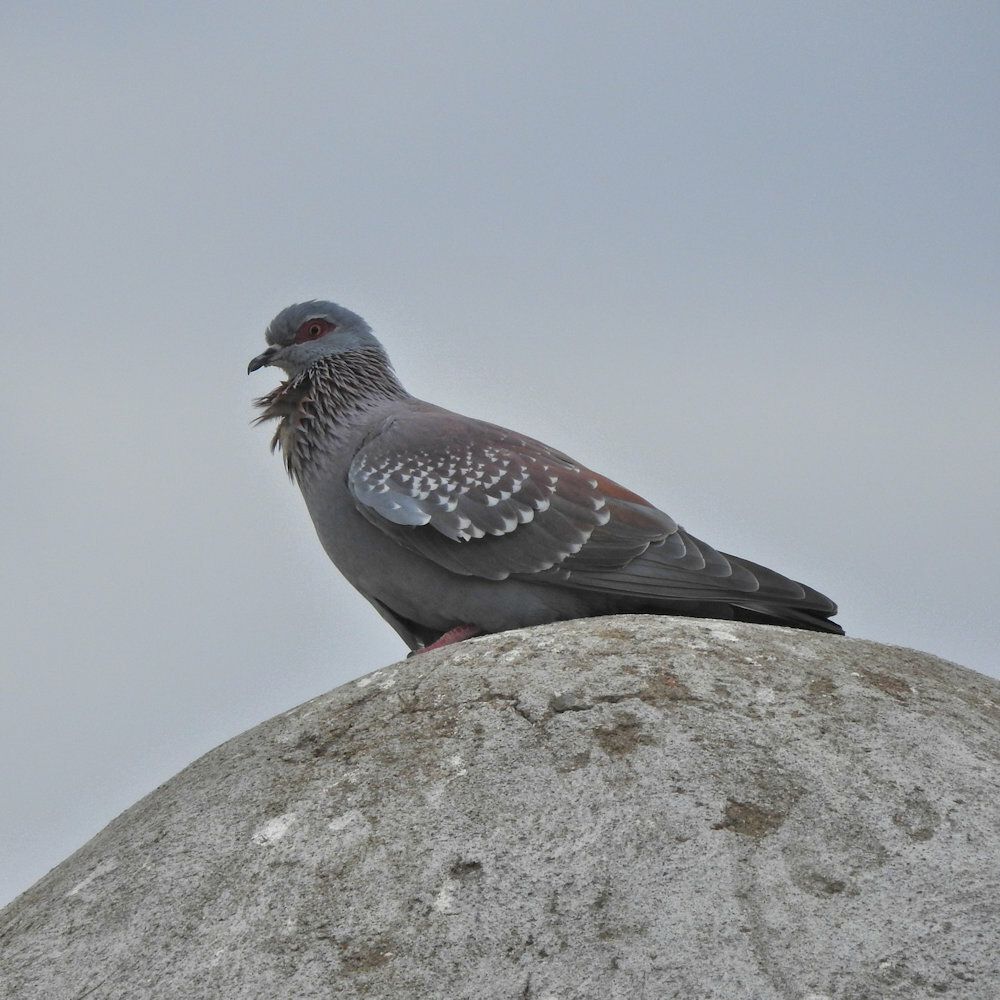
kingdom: Animalia
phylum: Chordata
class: Aves
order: Columbiformes
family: Columbidae
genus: Columba
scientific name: Columba guinea
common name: Speckled pigeon
